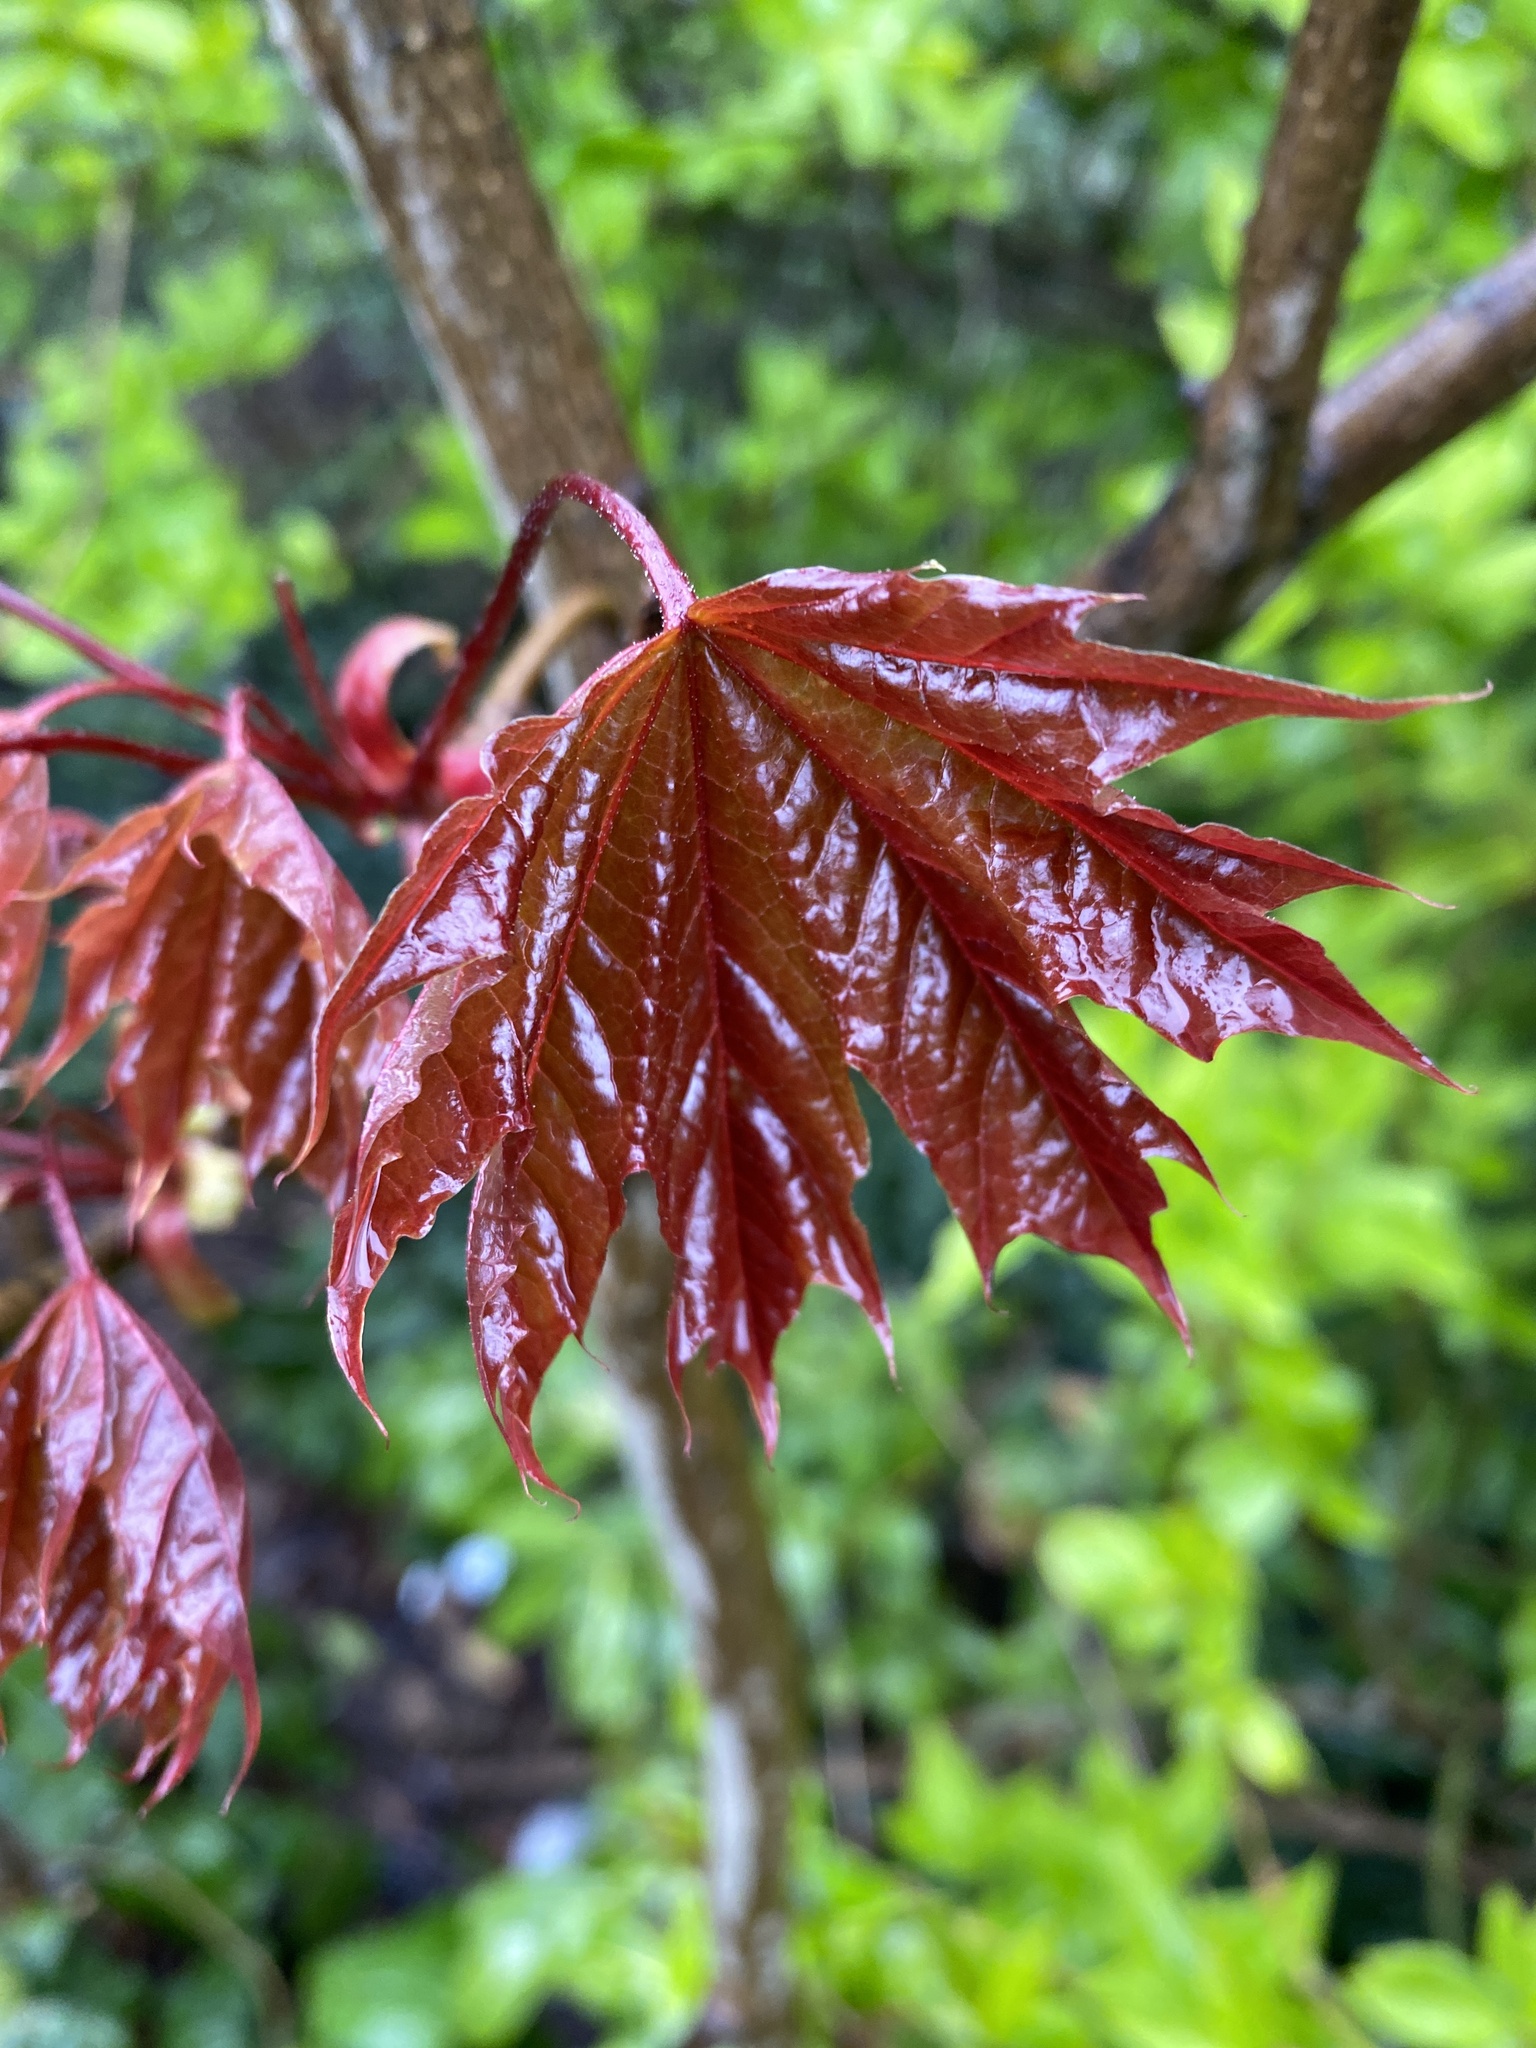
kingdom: Plantae
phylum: Tracheophyta
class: Magnoliopsida
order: Sapindales
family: Sapindaceae
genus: Acer
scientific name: Acer platanoides
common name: Norway maple
